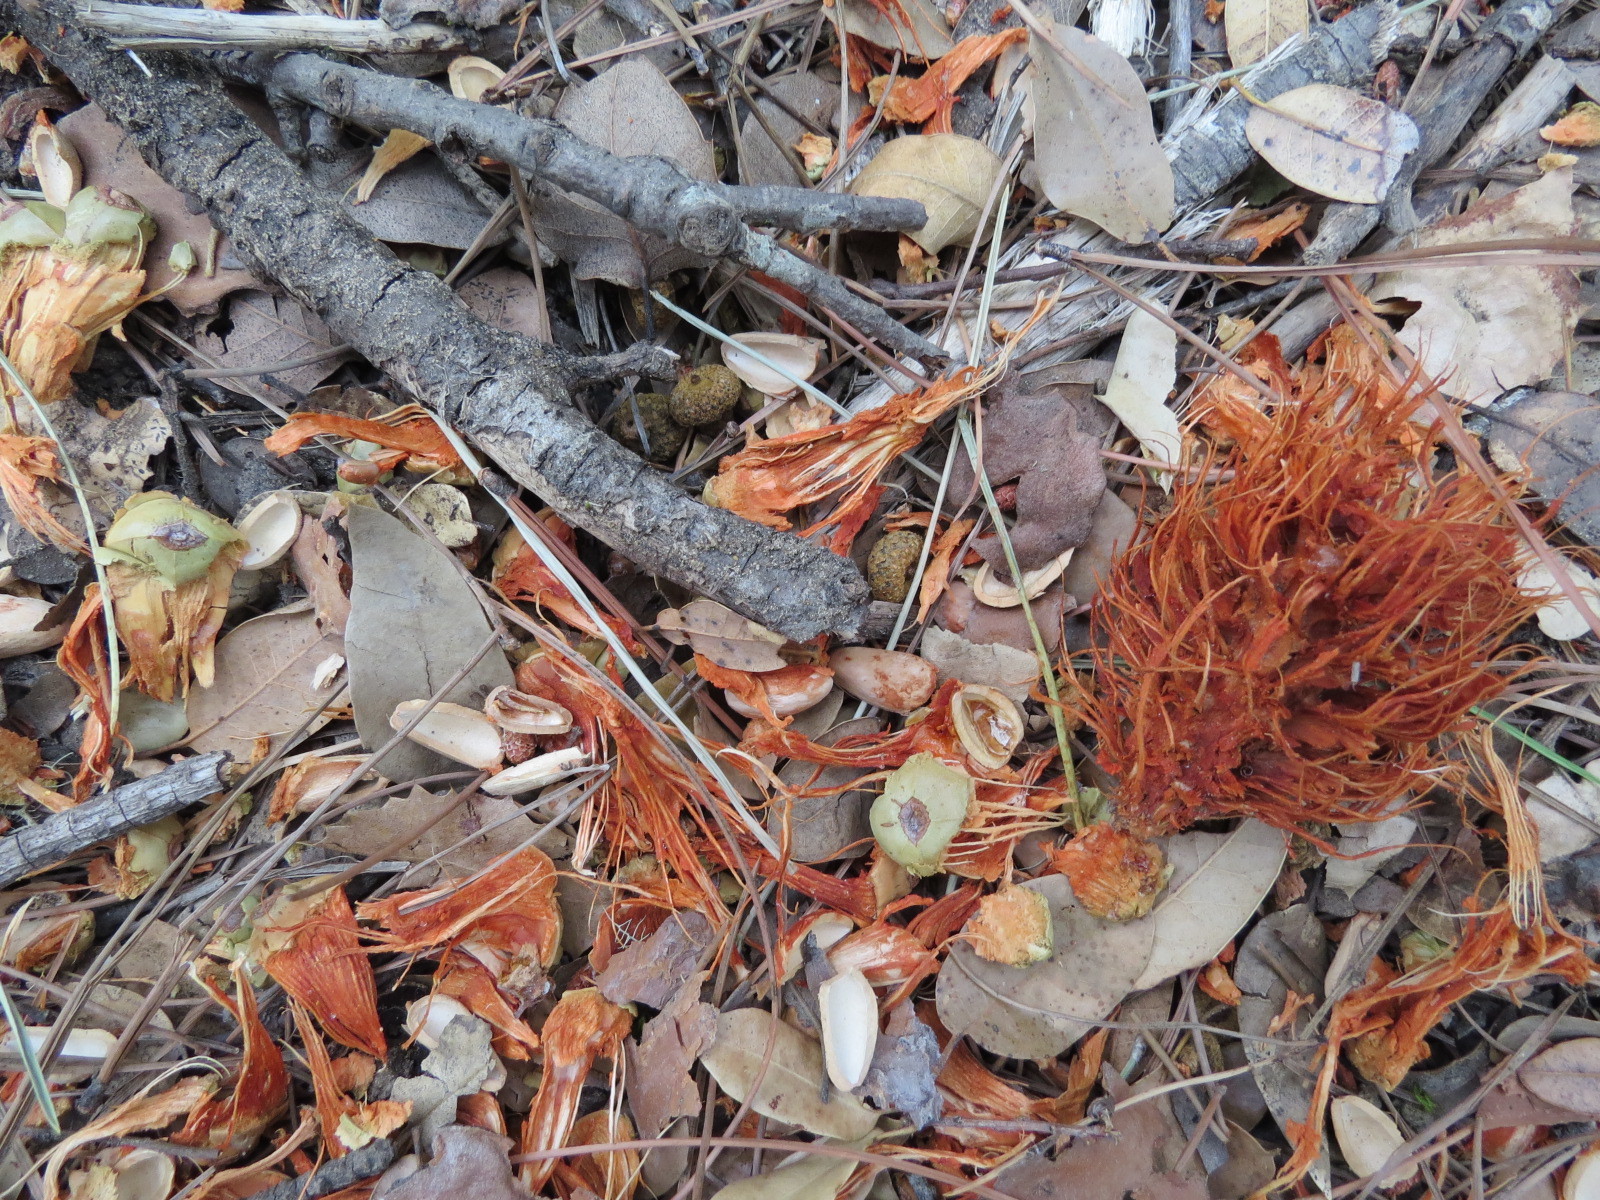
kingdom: Animalia
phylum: Chordata
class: Mammalia
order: Rodentia
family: Sciuridae
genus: Sciurus
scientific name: Sciurus griseus
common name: Western gray squirrel
